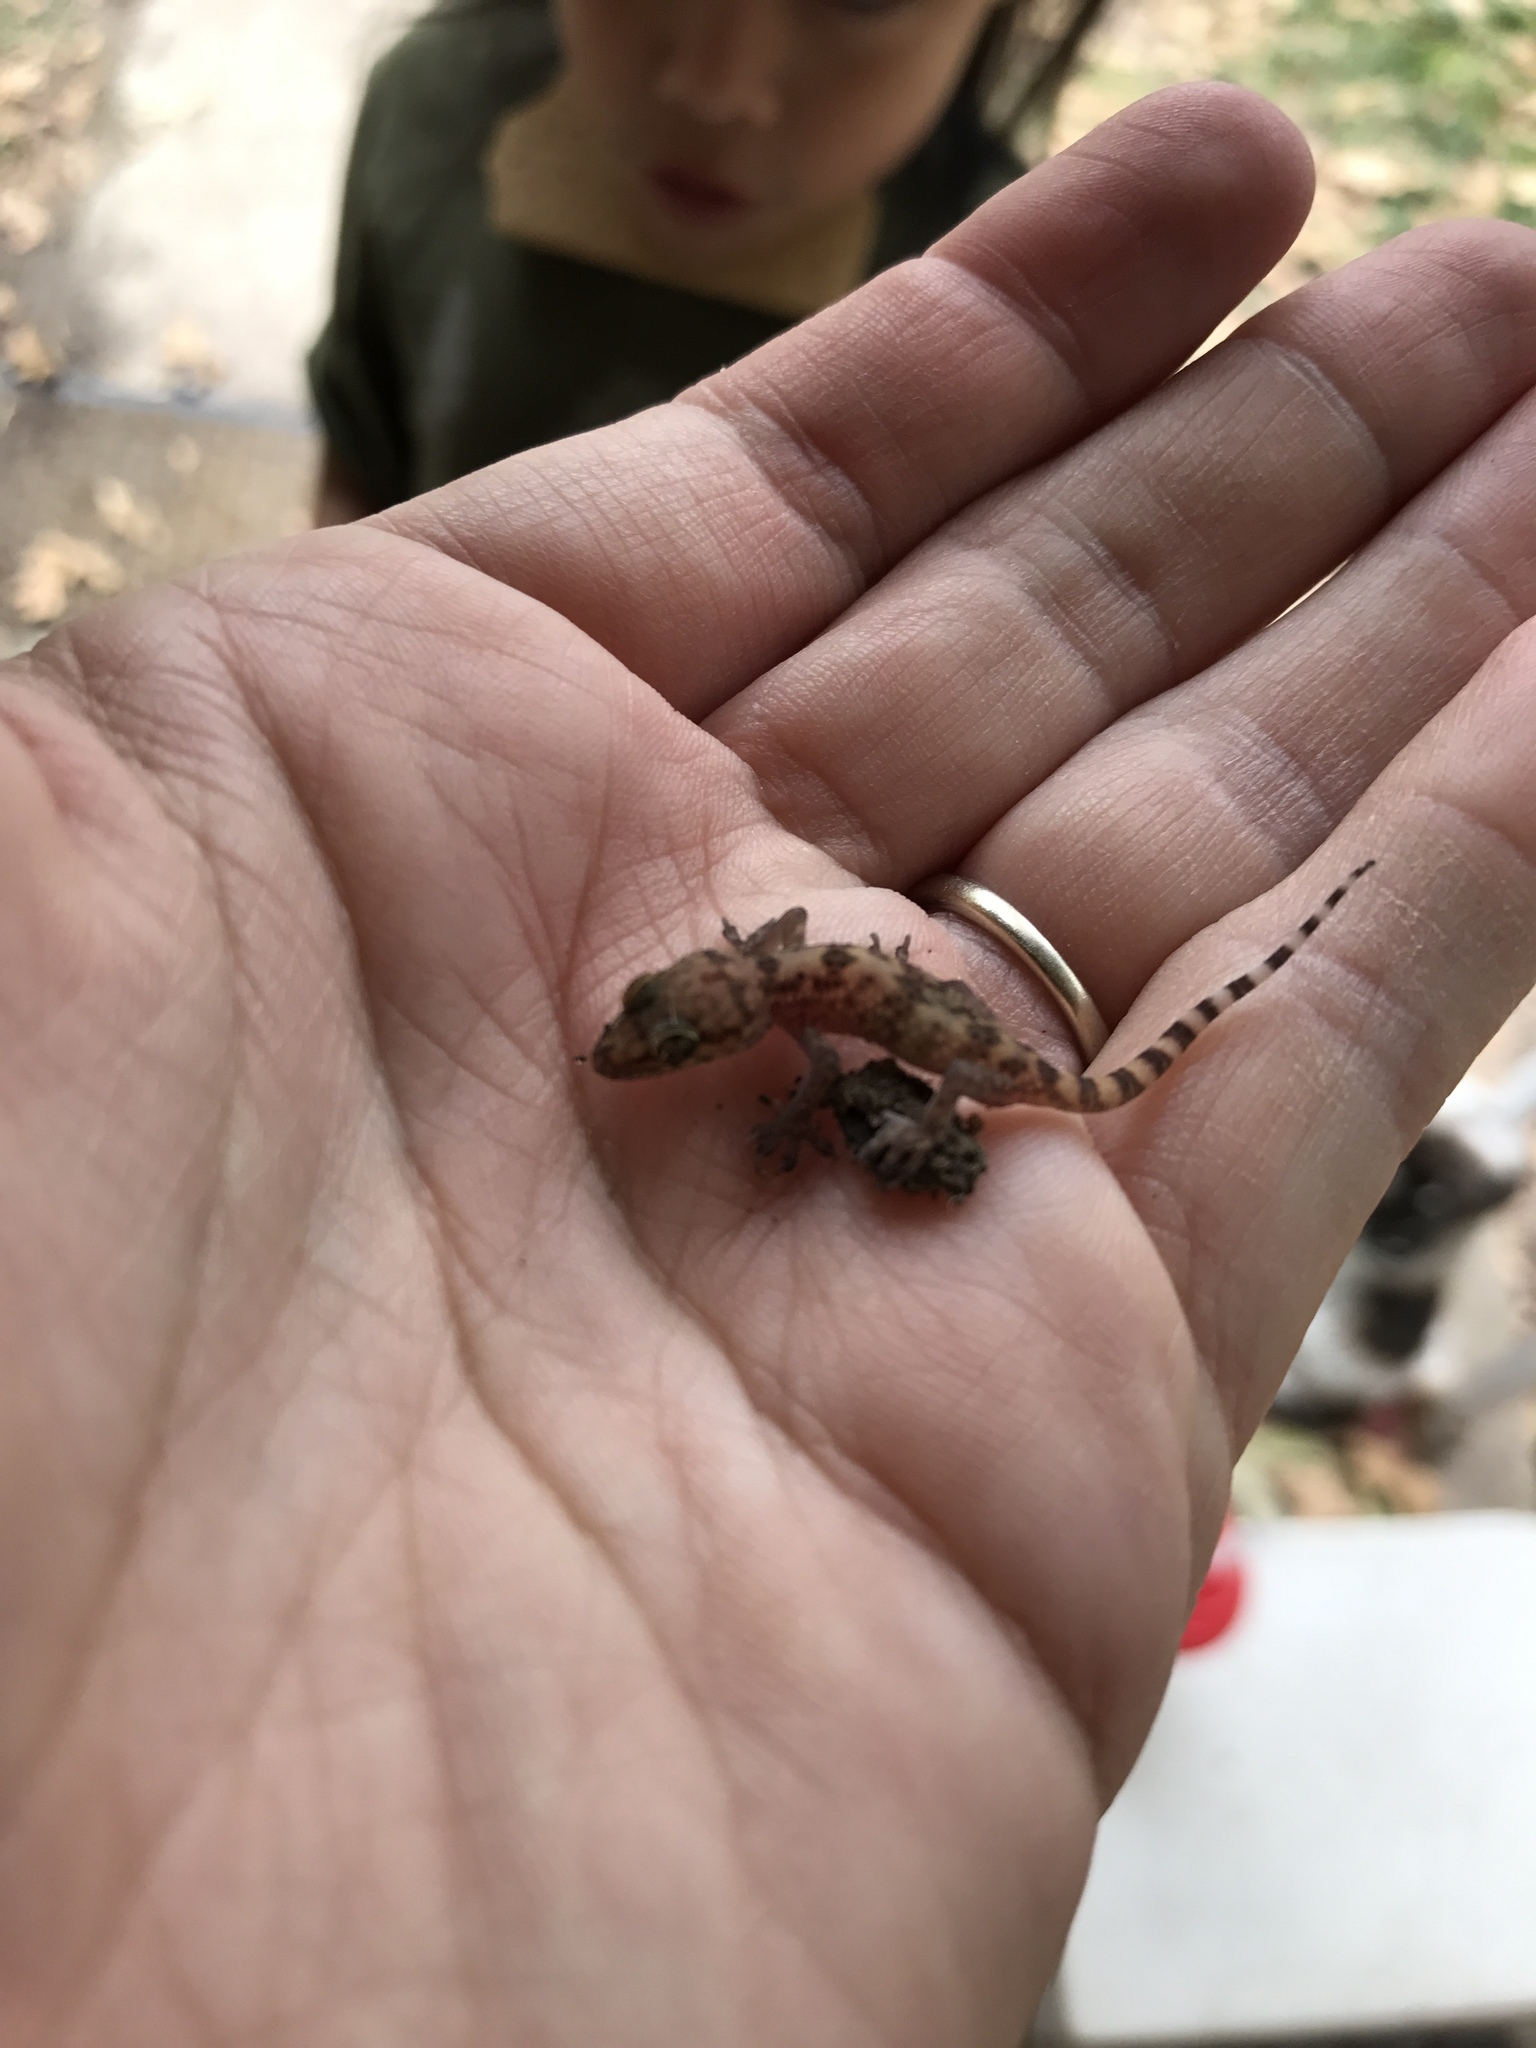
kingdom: Animalia
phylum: Chordata
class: Squamata
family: Gekkonidae
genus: Hemidactylus
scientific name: Hemidactylus turcicus
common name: Turkish gecko
